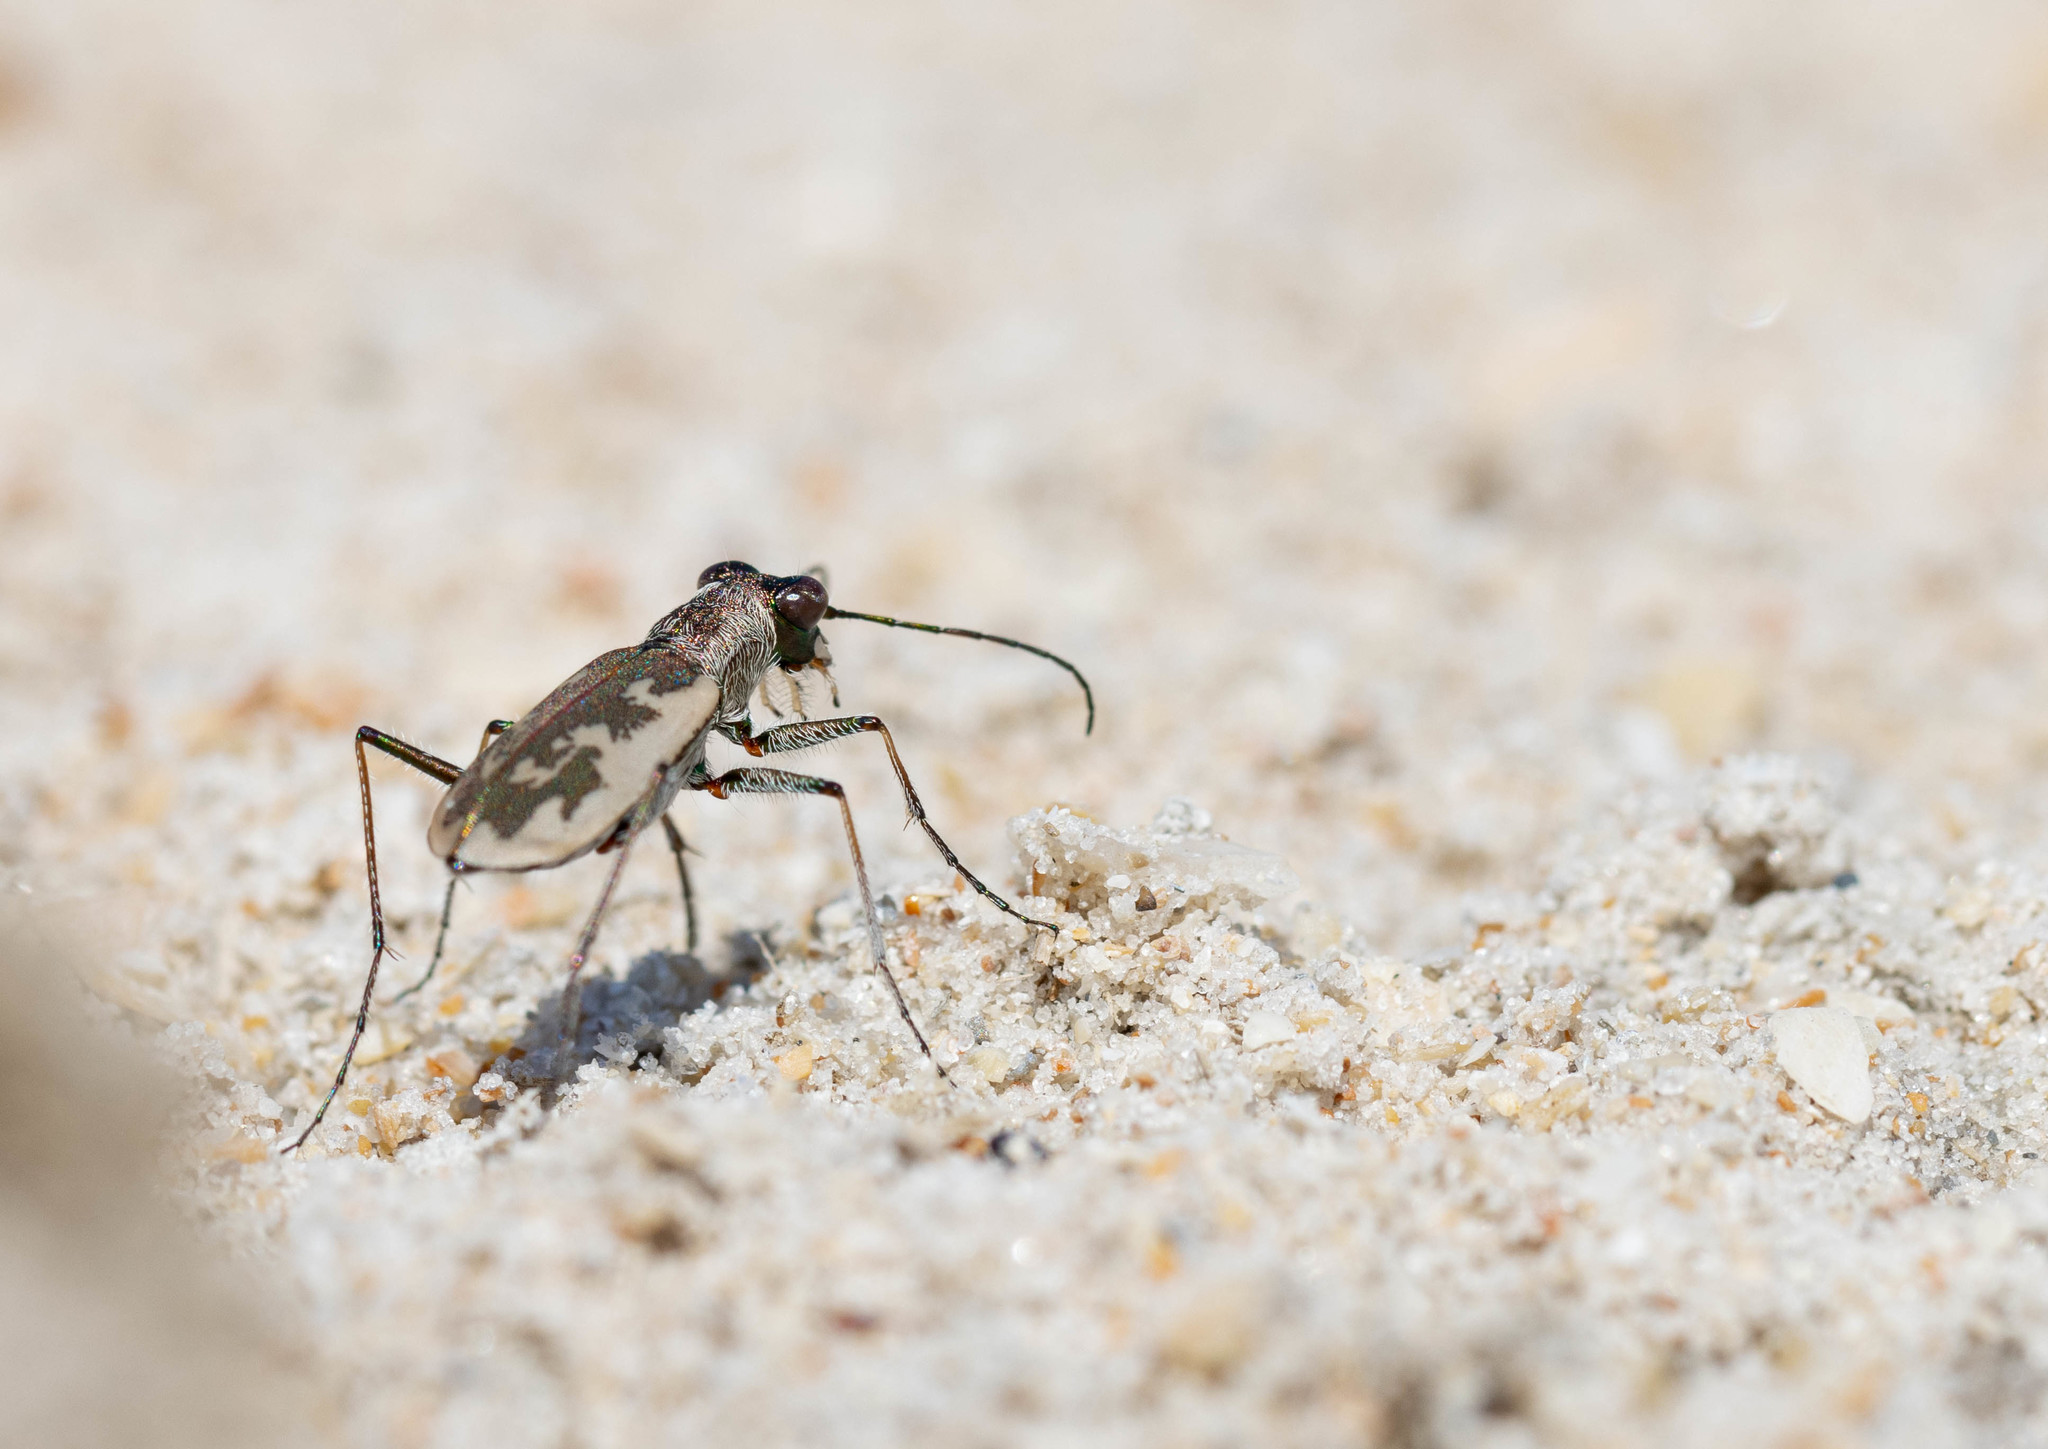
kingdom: Animalia
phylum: Arthropoda
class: Insecta
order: Coleoptera
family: Carabidae
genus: Cephalota
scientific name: Cephalota chiloleuca
